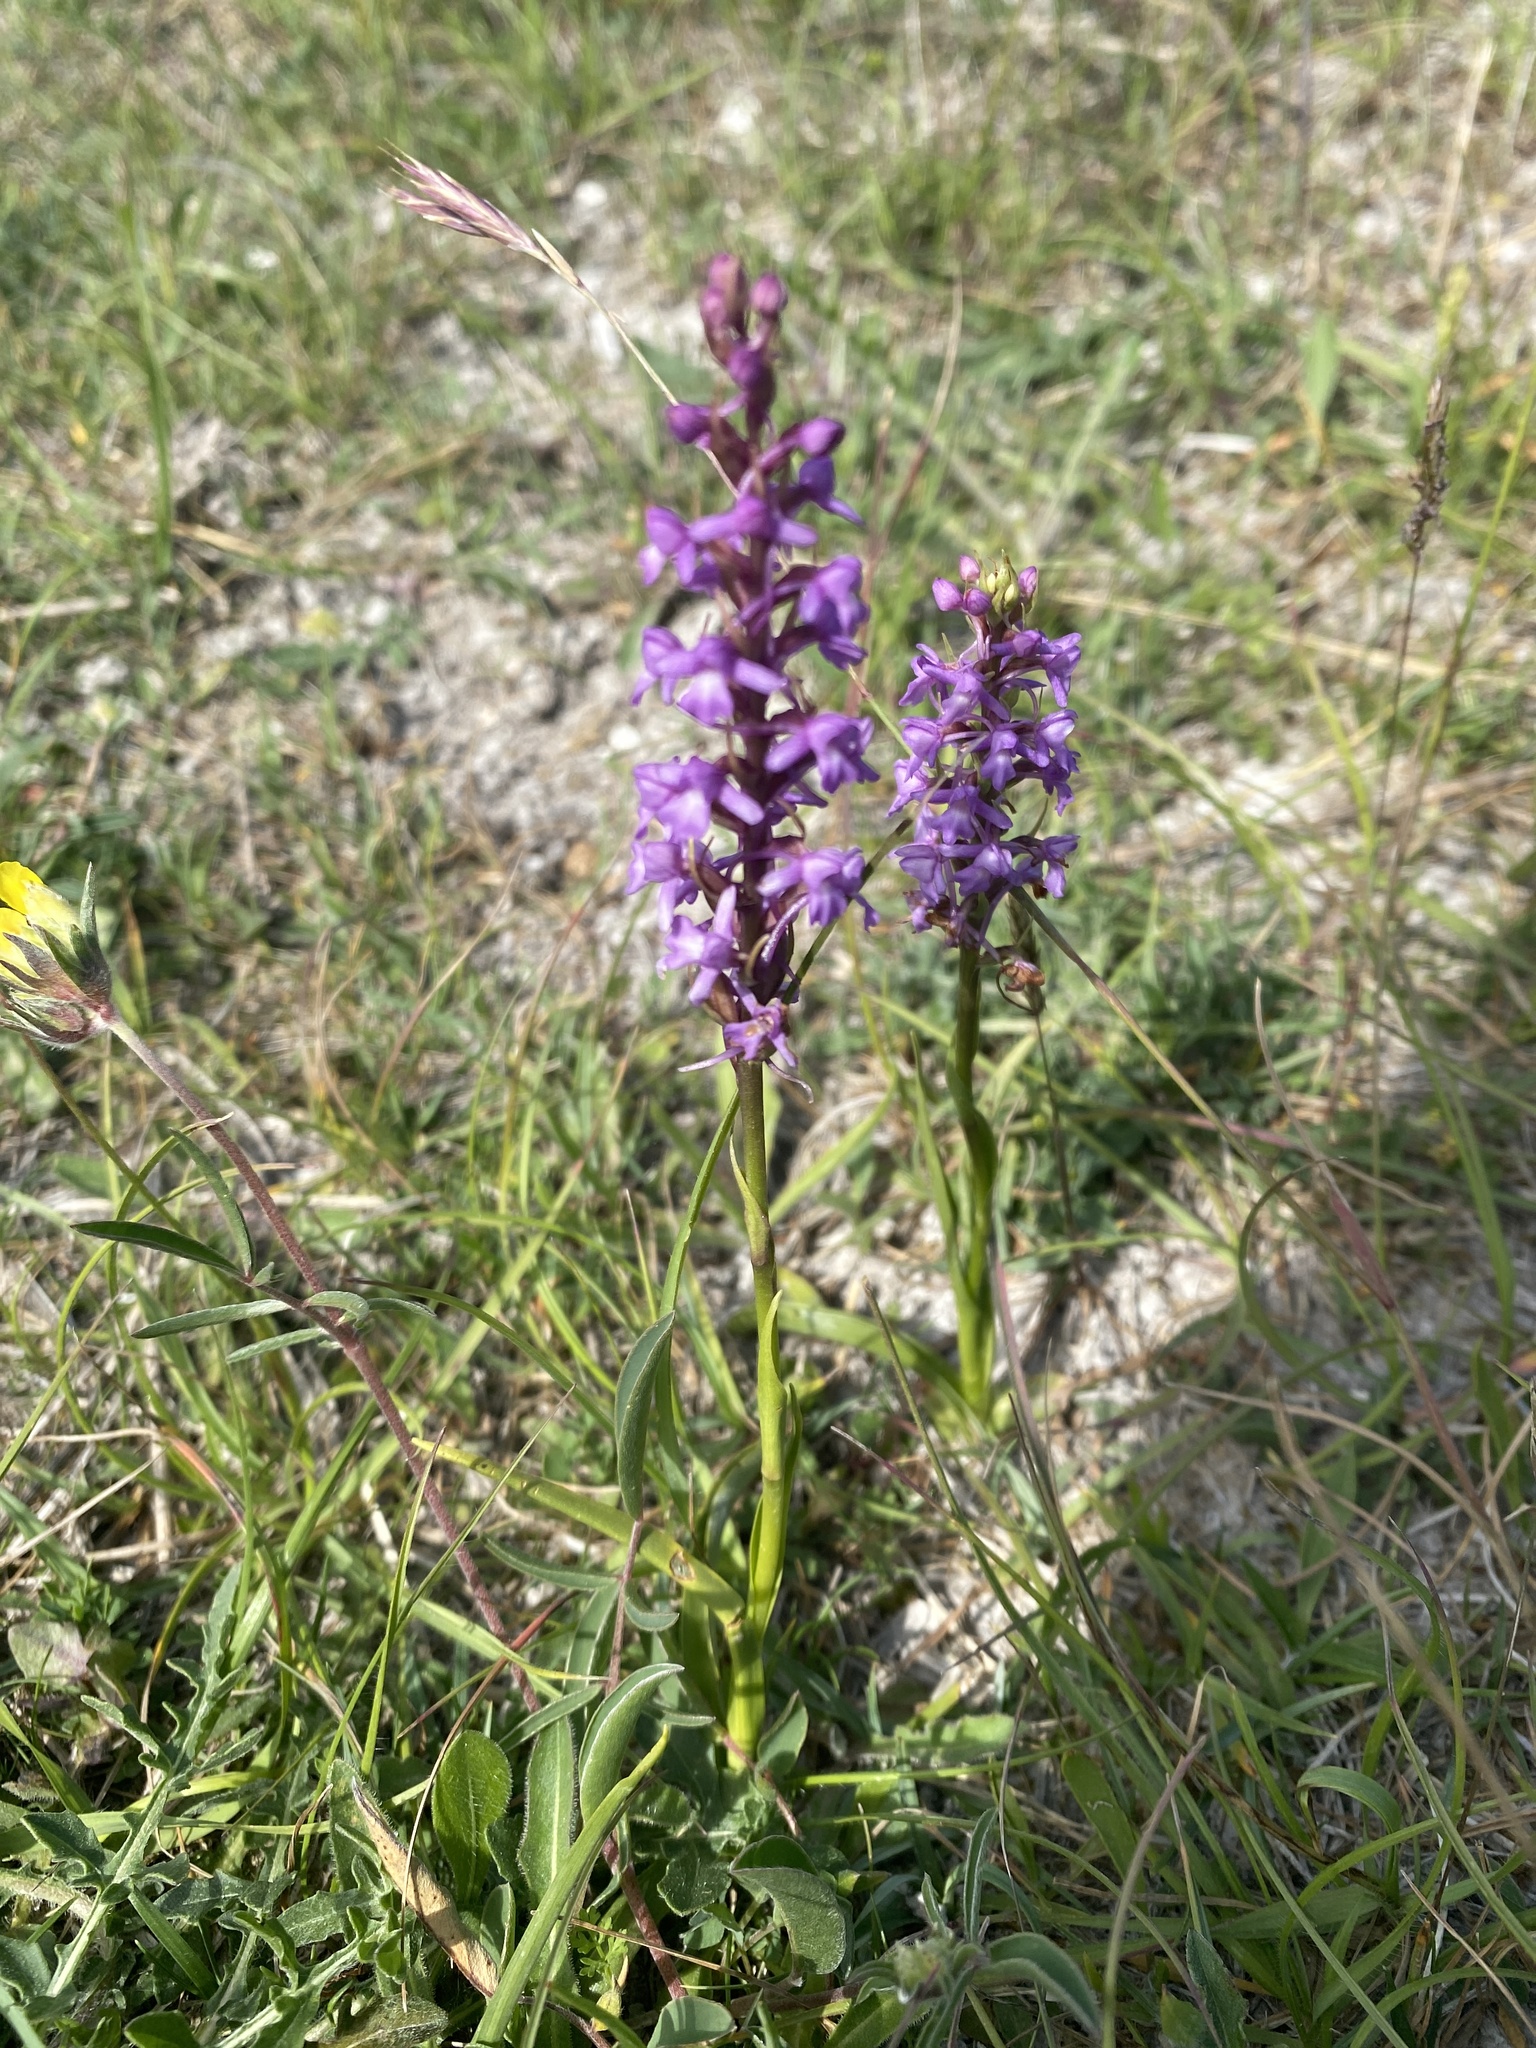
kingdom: Plantae
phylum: Tracheophyta
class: Liliopsida
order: Asparagales
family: Orchidaceae
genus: Gymnadenia
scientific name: Gymnadenia conopsea
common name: Fragrant orchid
